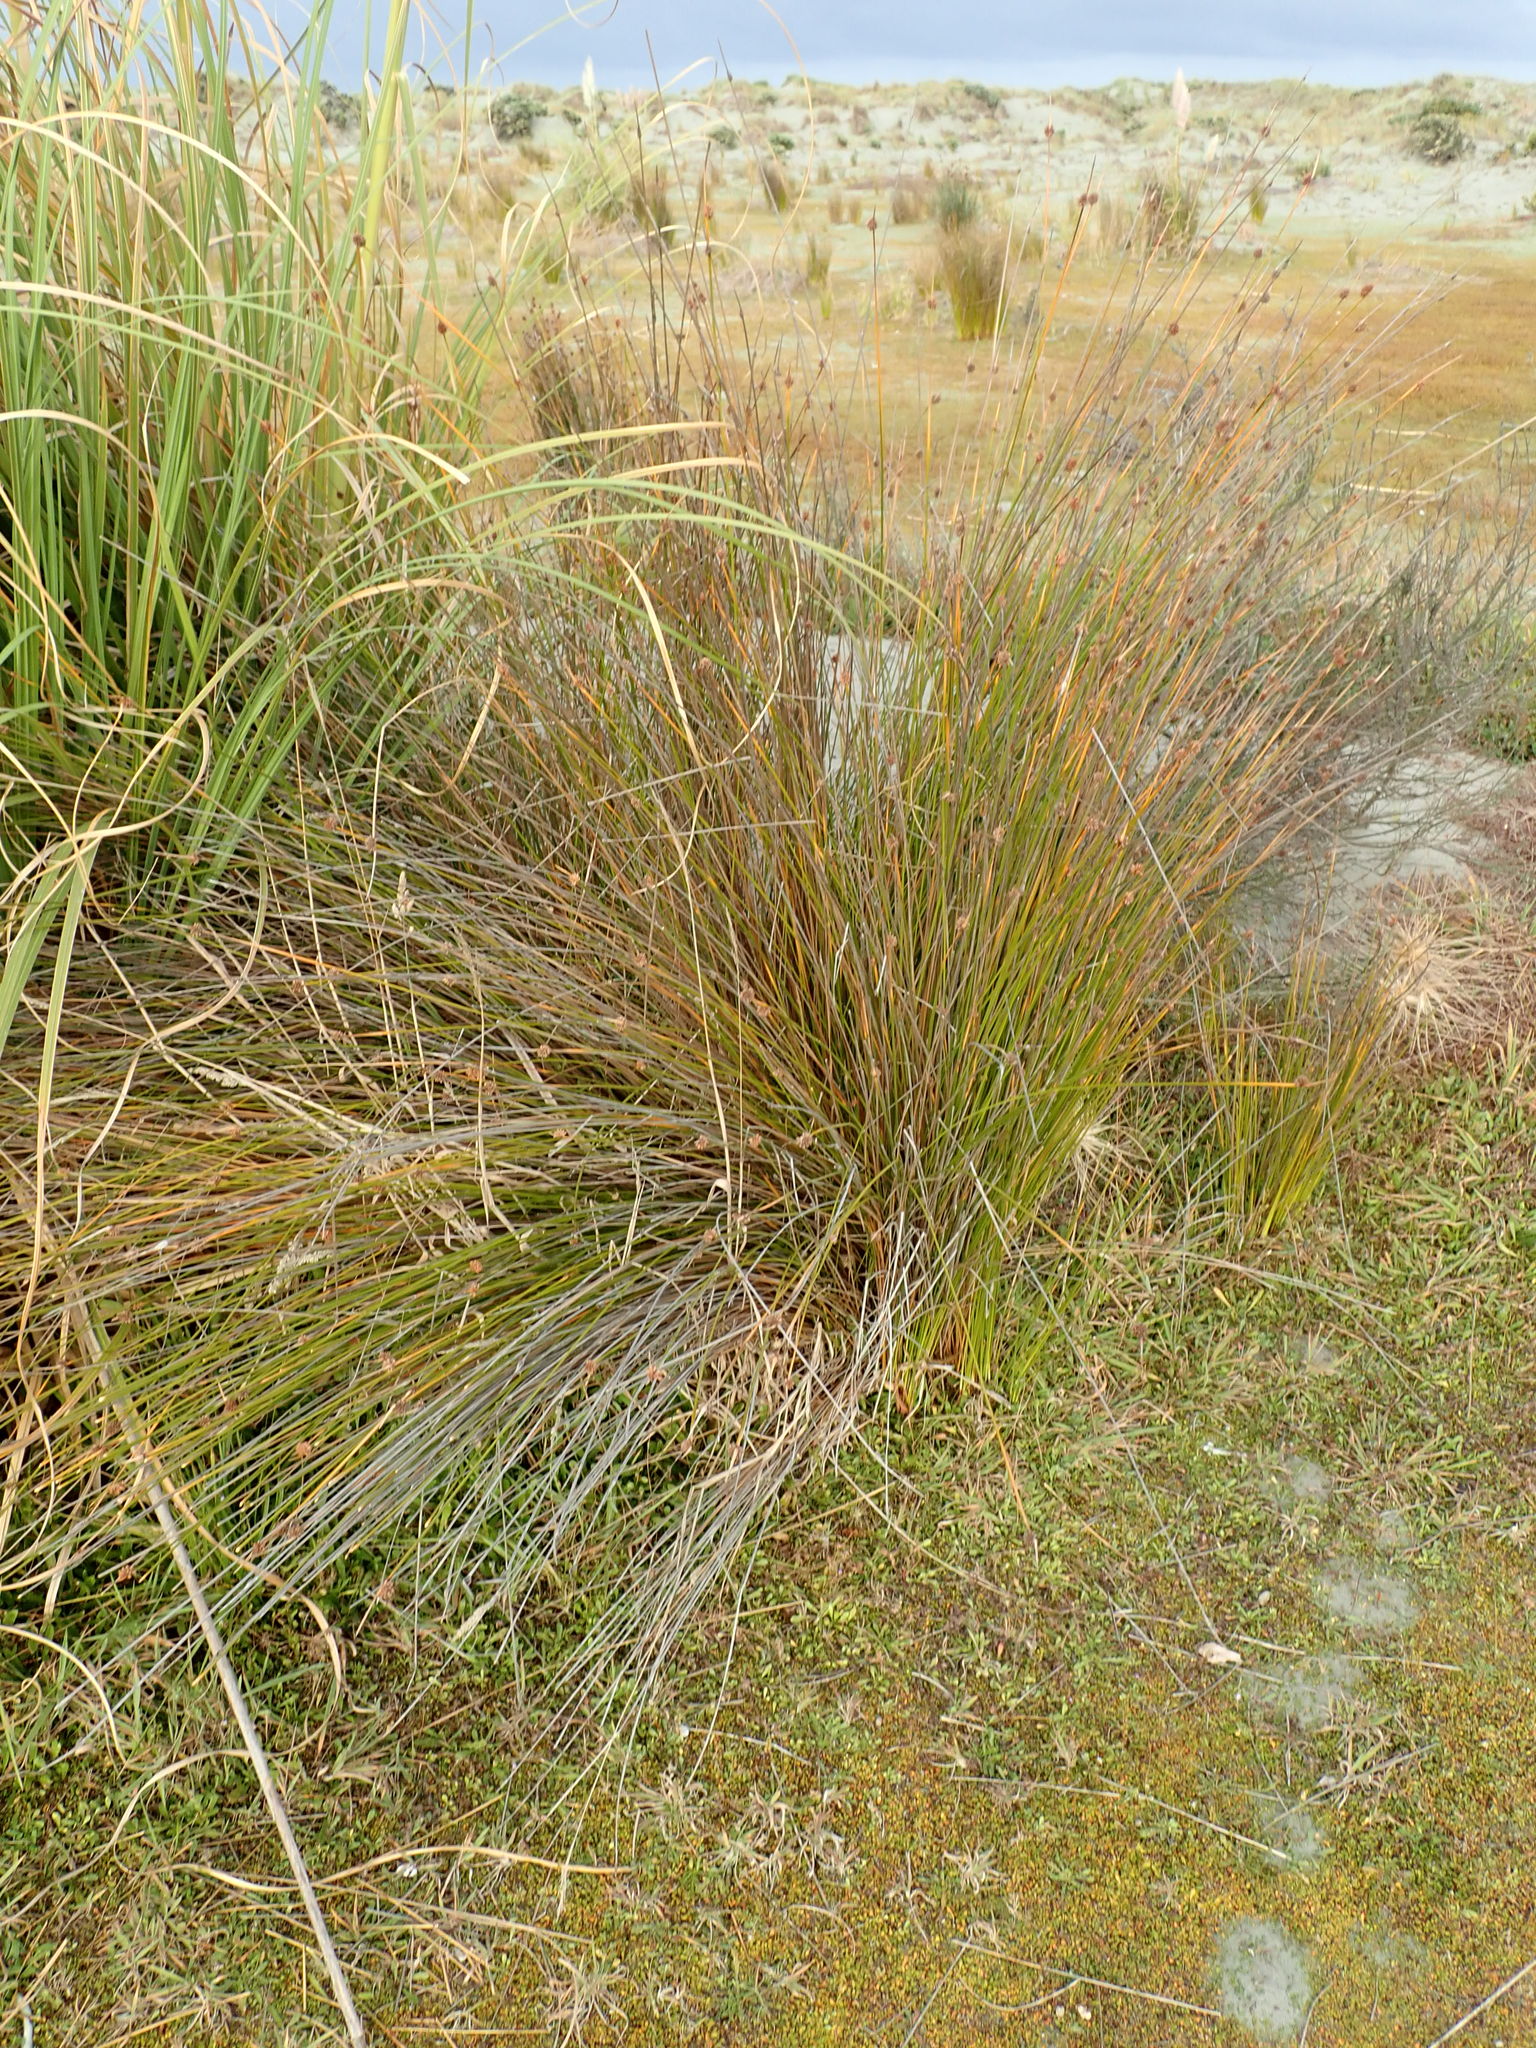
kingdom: Plantae
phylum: Tracheophyta
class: Liliopsida
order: Poales
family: Cyperaceae
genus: Ficinia
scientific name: Ficinia nodosa
